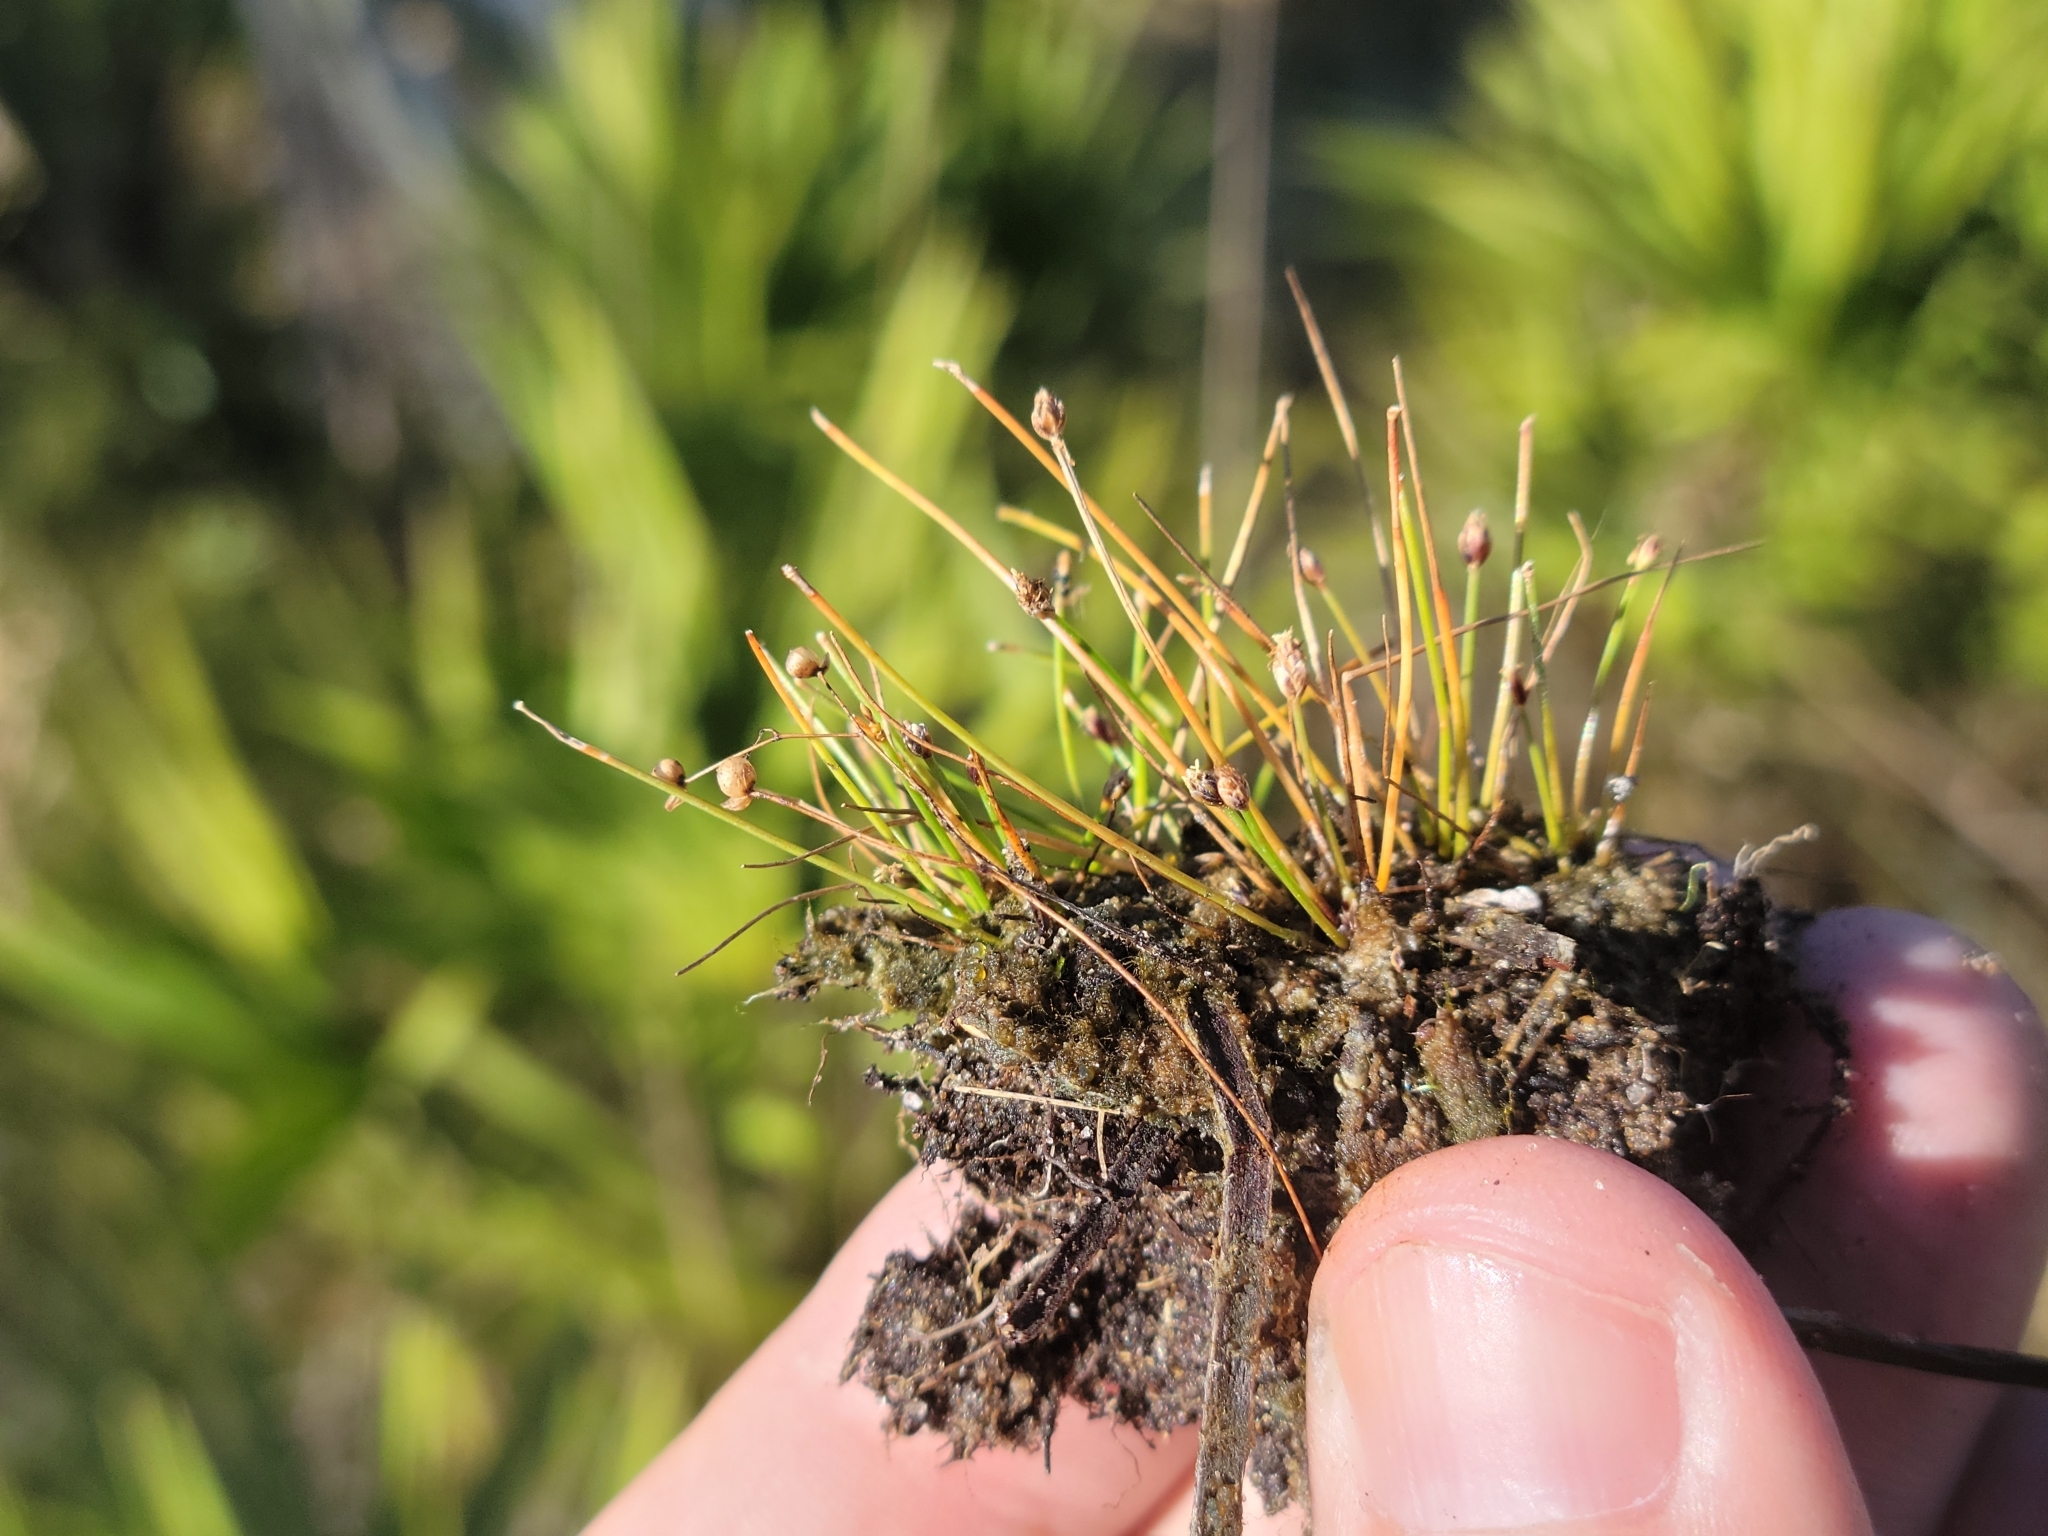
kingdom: Plantae
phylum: Tracheophyta
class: Liliopsida
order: Poales
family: Cyperaceae
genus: Eleocharis
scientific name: Eleocharis atropurpurea
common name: Purple spikerush
